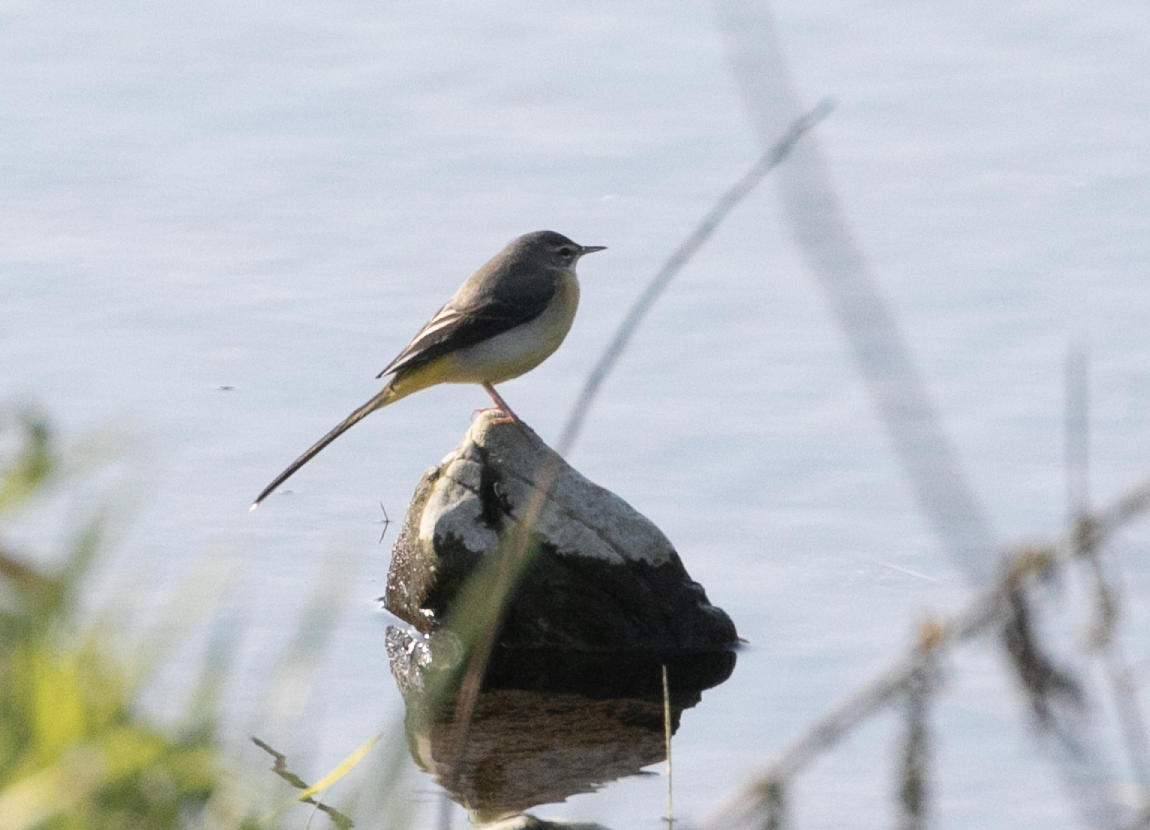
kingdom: Animalia
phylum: Chordata
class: Aves
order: Passeriformes
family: Motacillidae
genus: Motacilla
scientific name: Motacilla cinerea
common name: Grey wagtail
